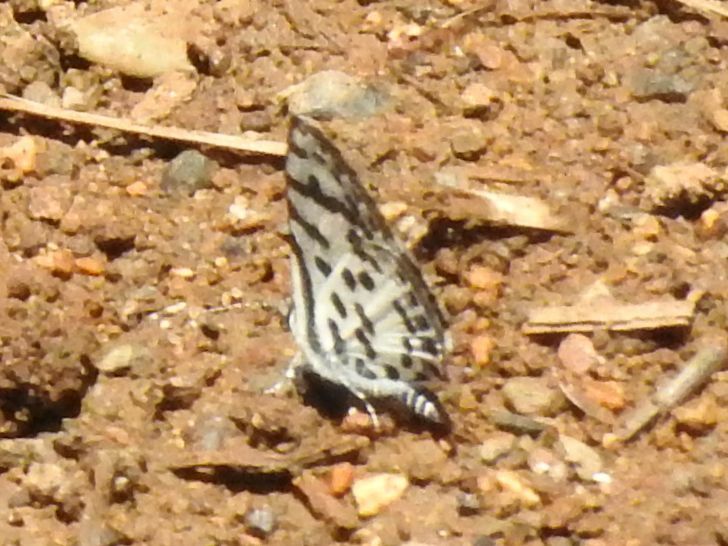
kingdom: Animalia
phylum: Arthropoda
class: Insecta
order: Lepidoptera
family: Lycaenidae
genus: Castalius
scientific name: Castalius calice
